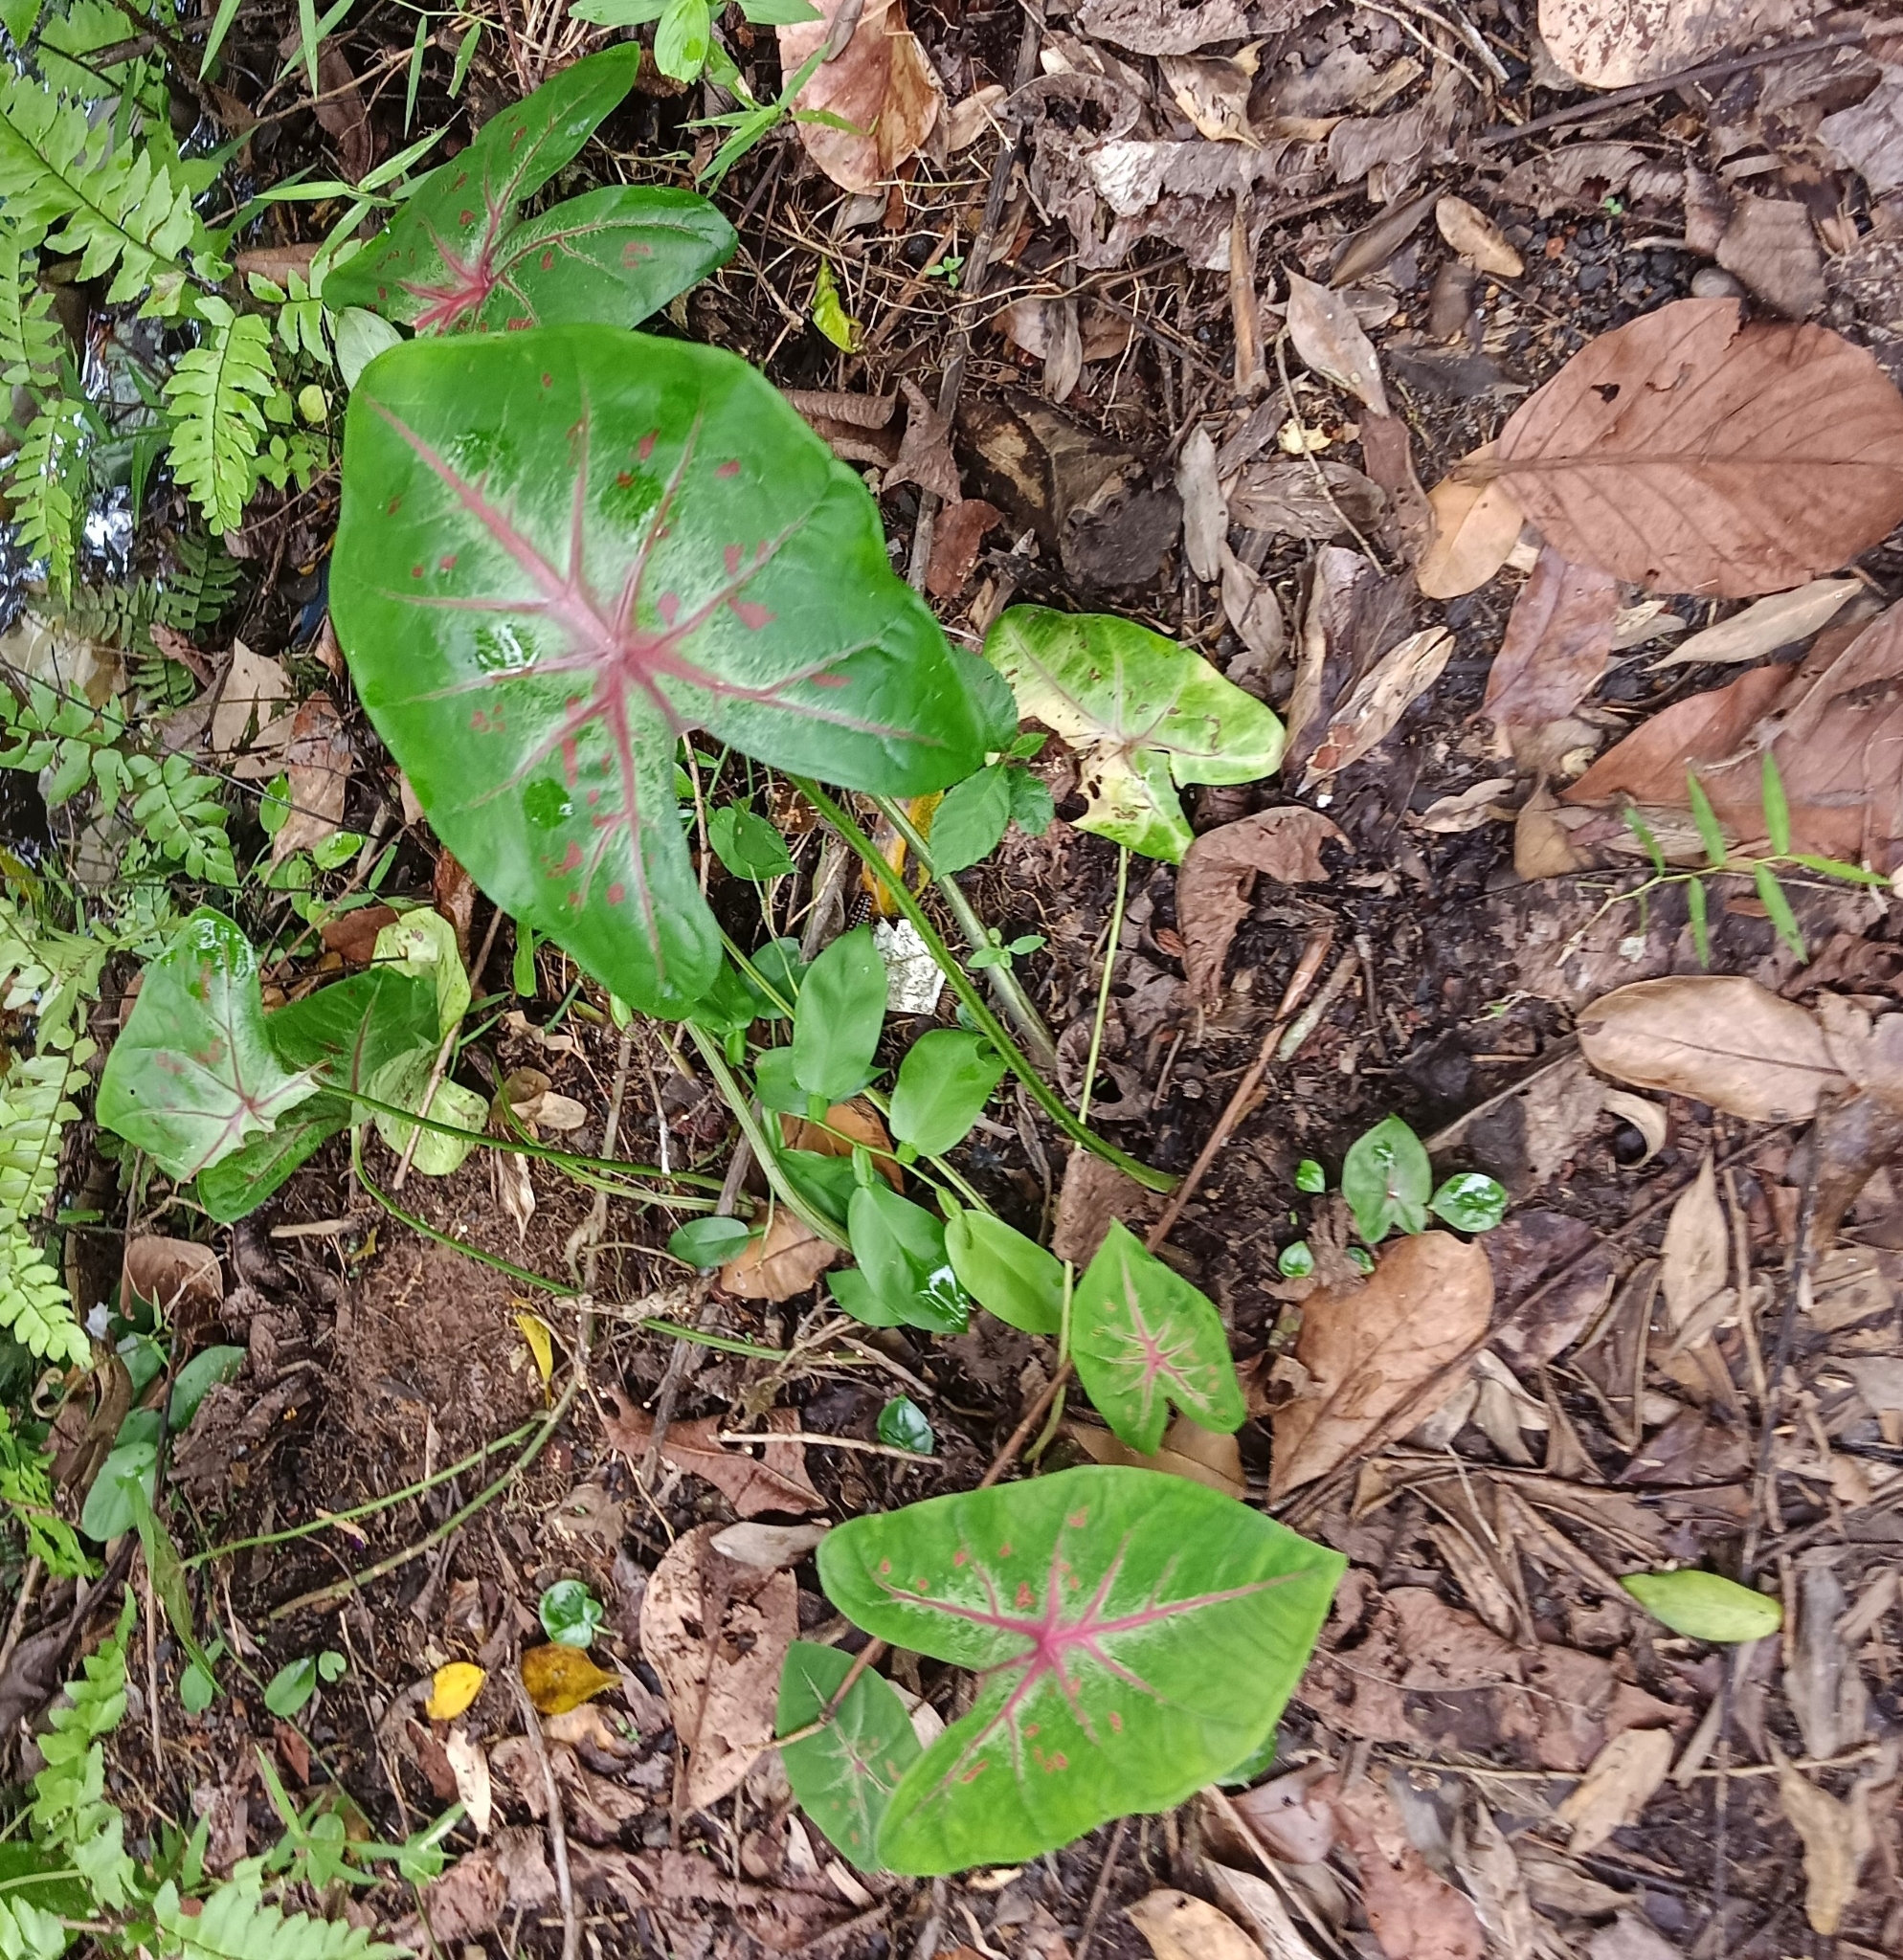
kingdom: Plantae
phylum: Tracheophyta
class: Liliopsida
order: Alismatales
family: Araceae
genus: Caladium
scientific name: Caladium bicolor
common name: Artist's pallet
